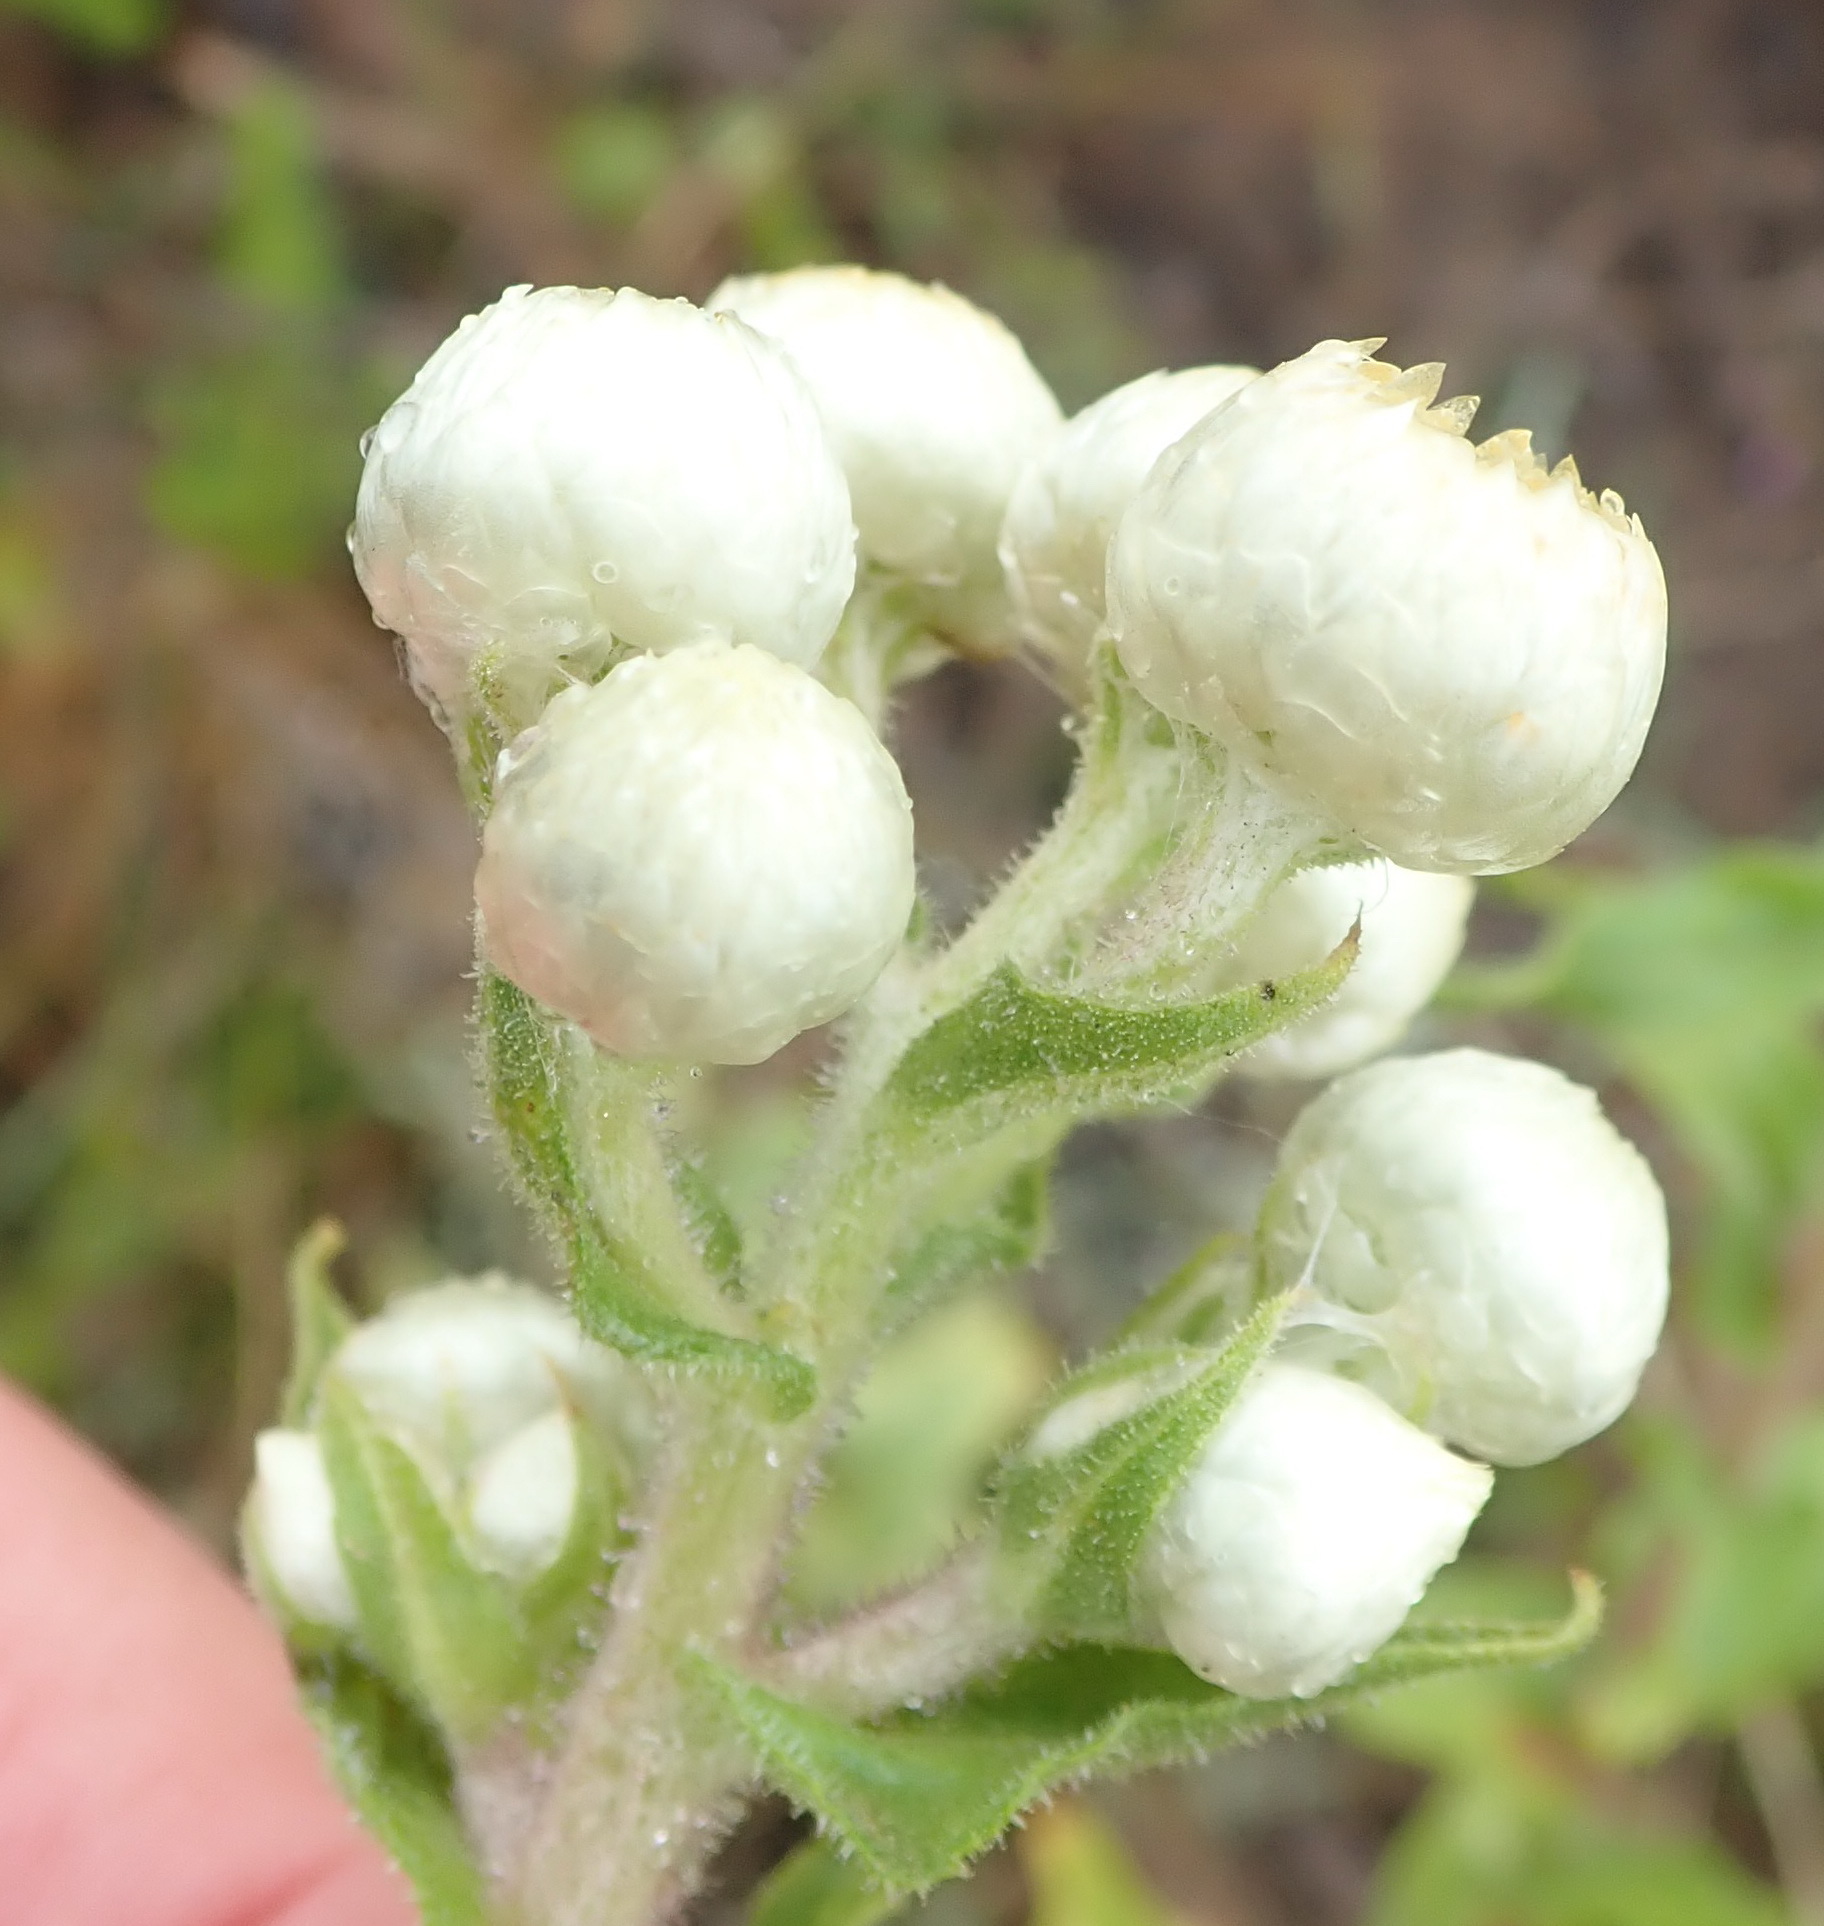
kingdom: Plantae
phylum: Tracheophyta
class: Magnoliopsida
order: Asterales
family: Asteraceae
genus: Helichrysum
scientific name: Helichrysum foetidum
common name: Stinking everlasting
